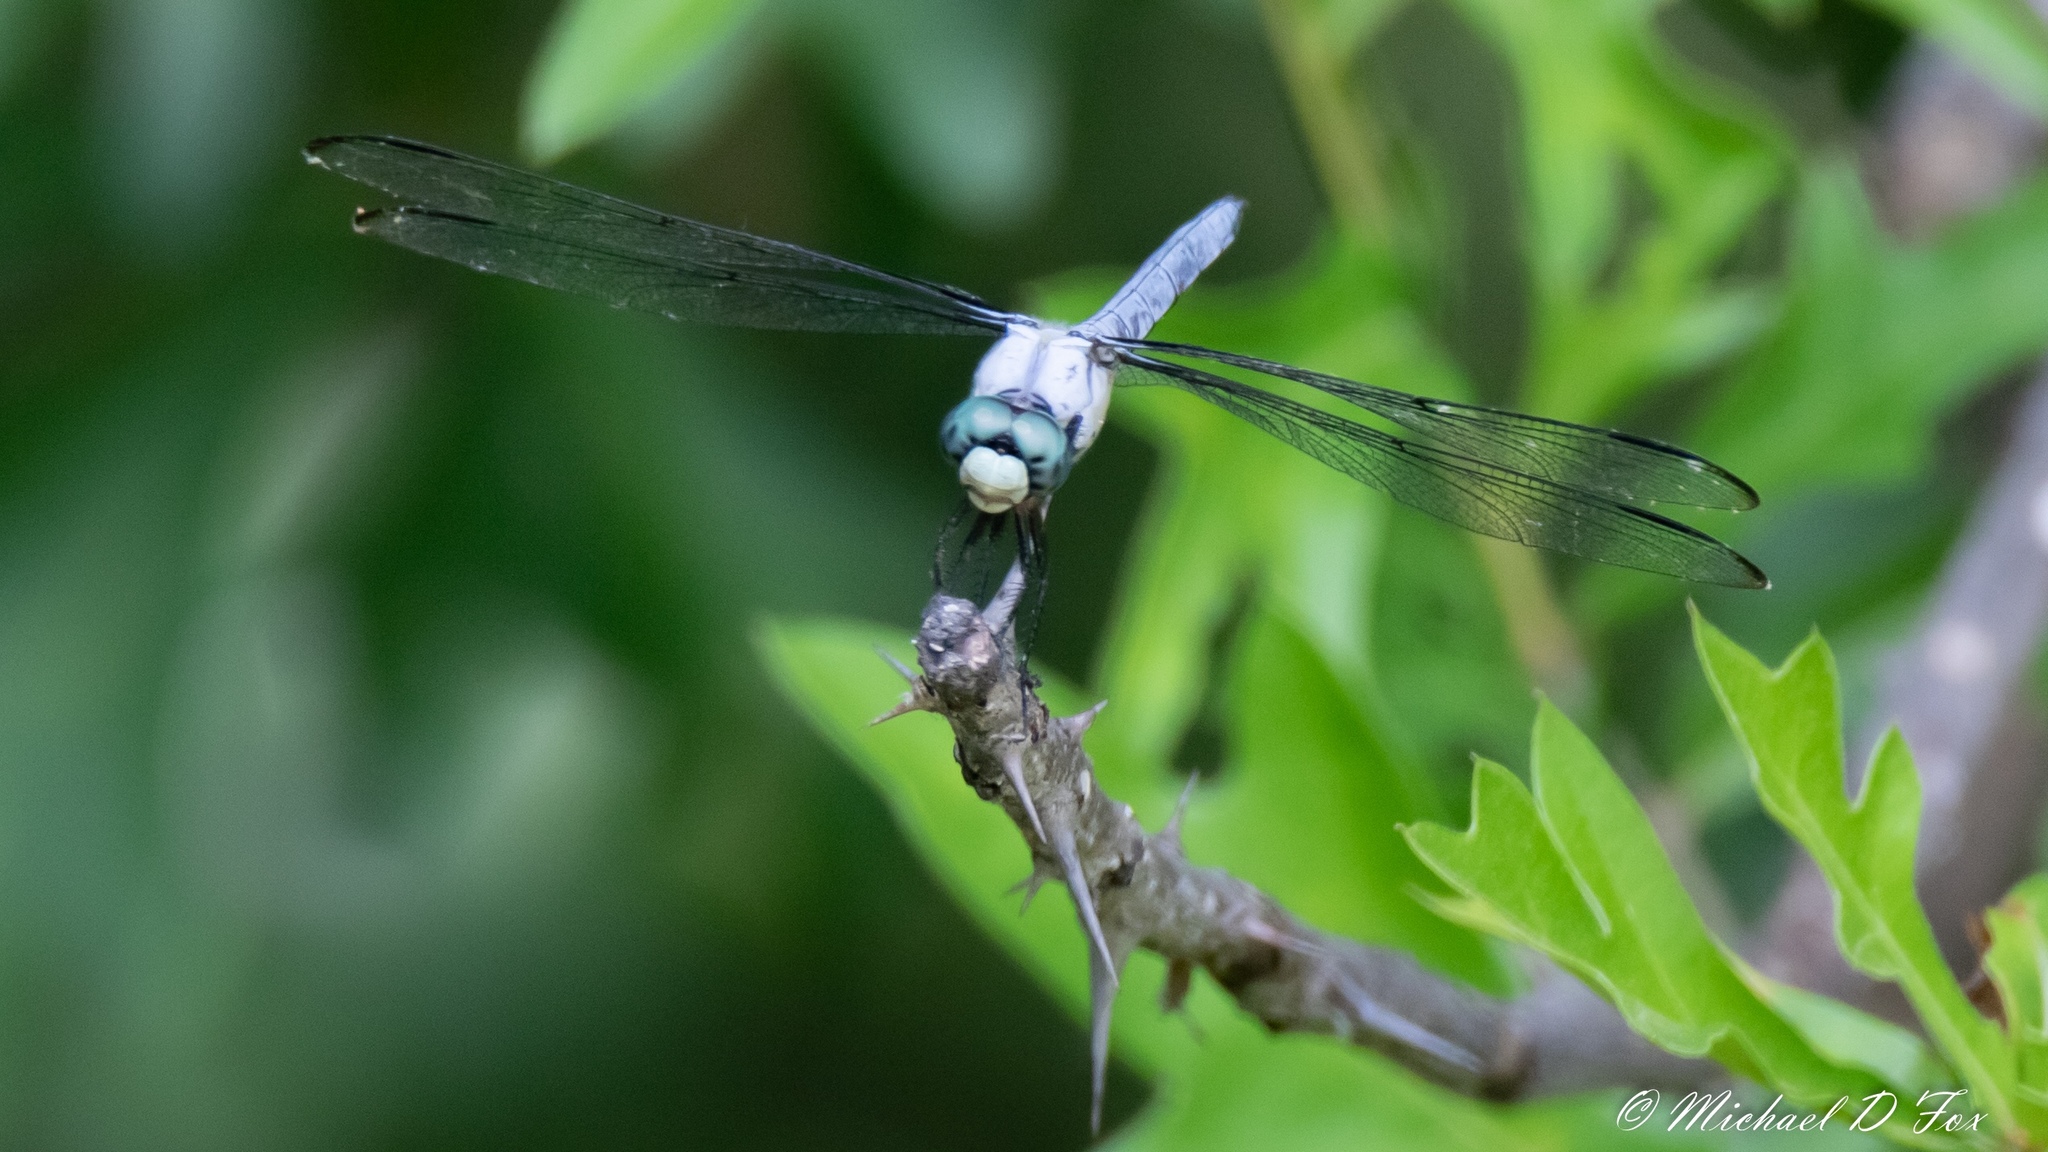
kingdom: Animalia
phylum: Arthropoda
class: Insecta
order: Odonata
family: Libellulidae
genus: Libellula
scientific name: Libellula vibrans
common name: Great blue skimmer
